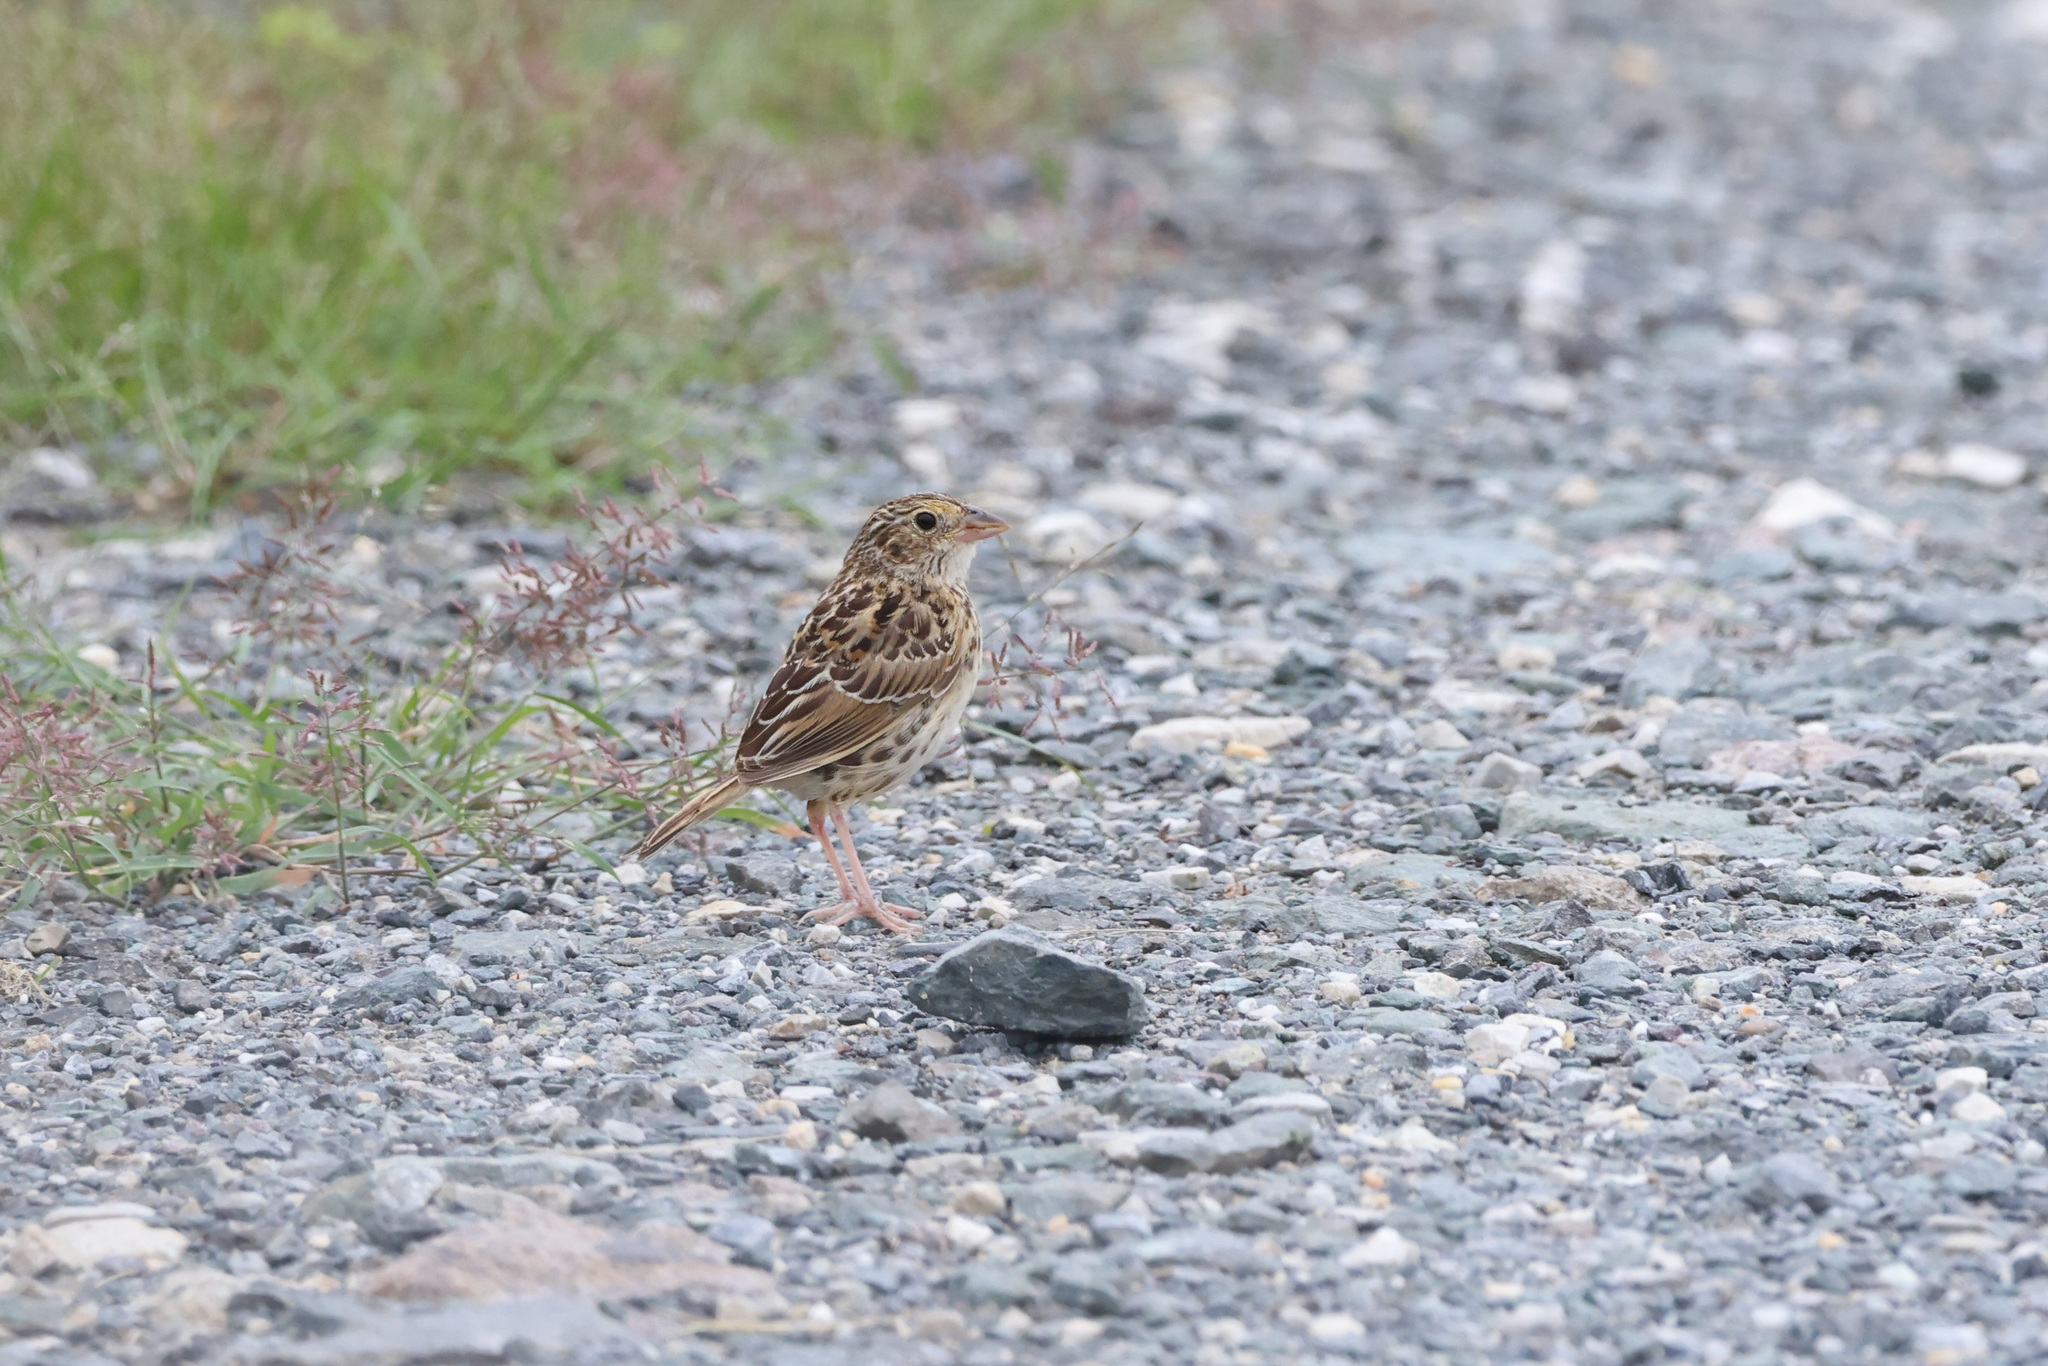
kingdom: Animalia
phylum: Chordata
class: Aves
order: Passeriformes
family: Passerellidae
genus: Ammodramus
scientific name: Ammodramus savannarum
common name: Grasshopper sparrow
